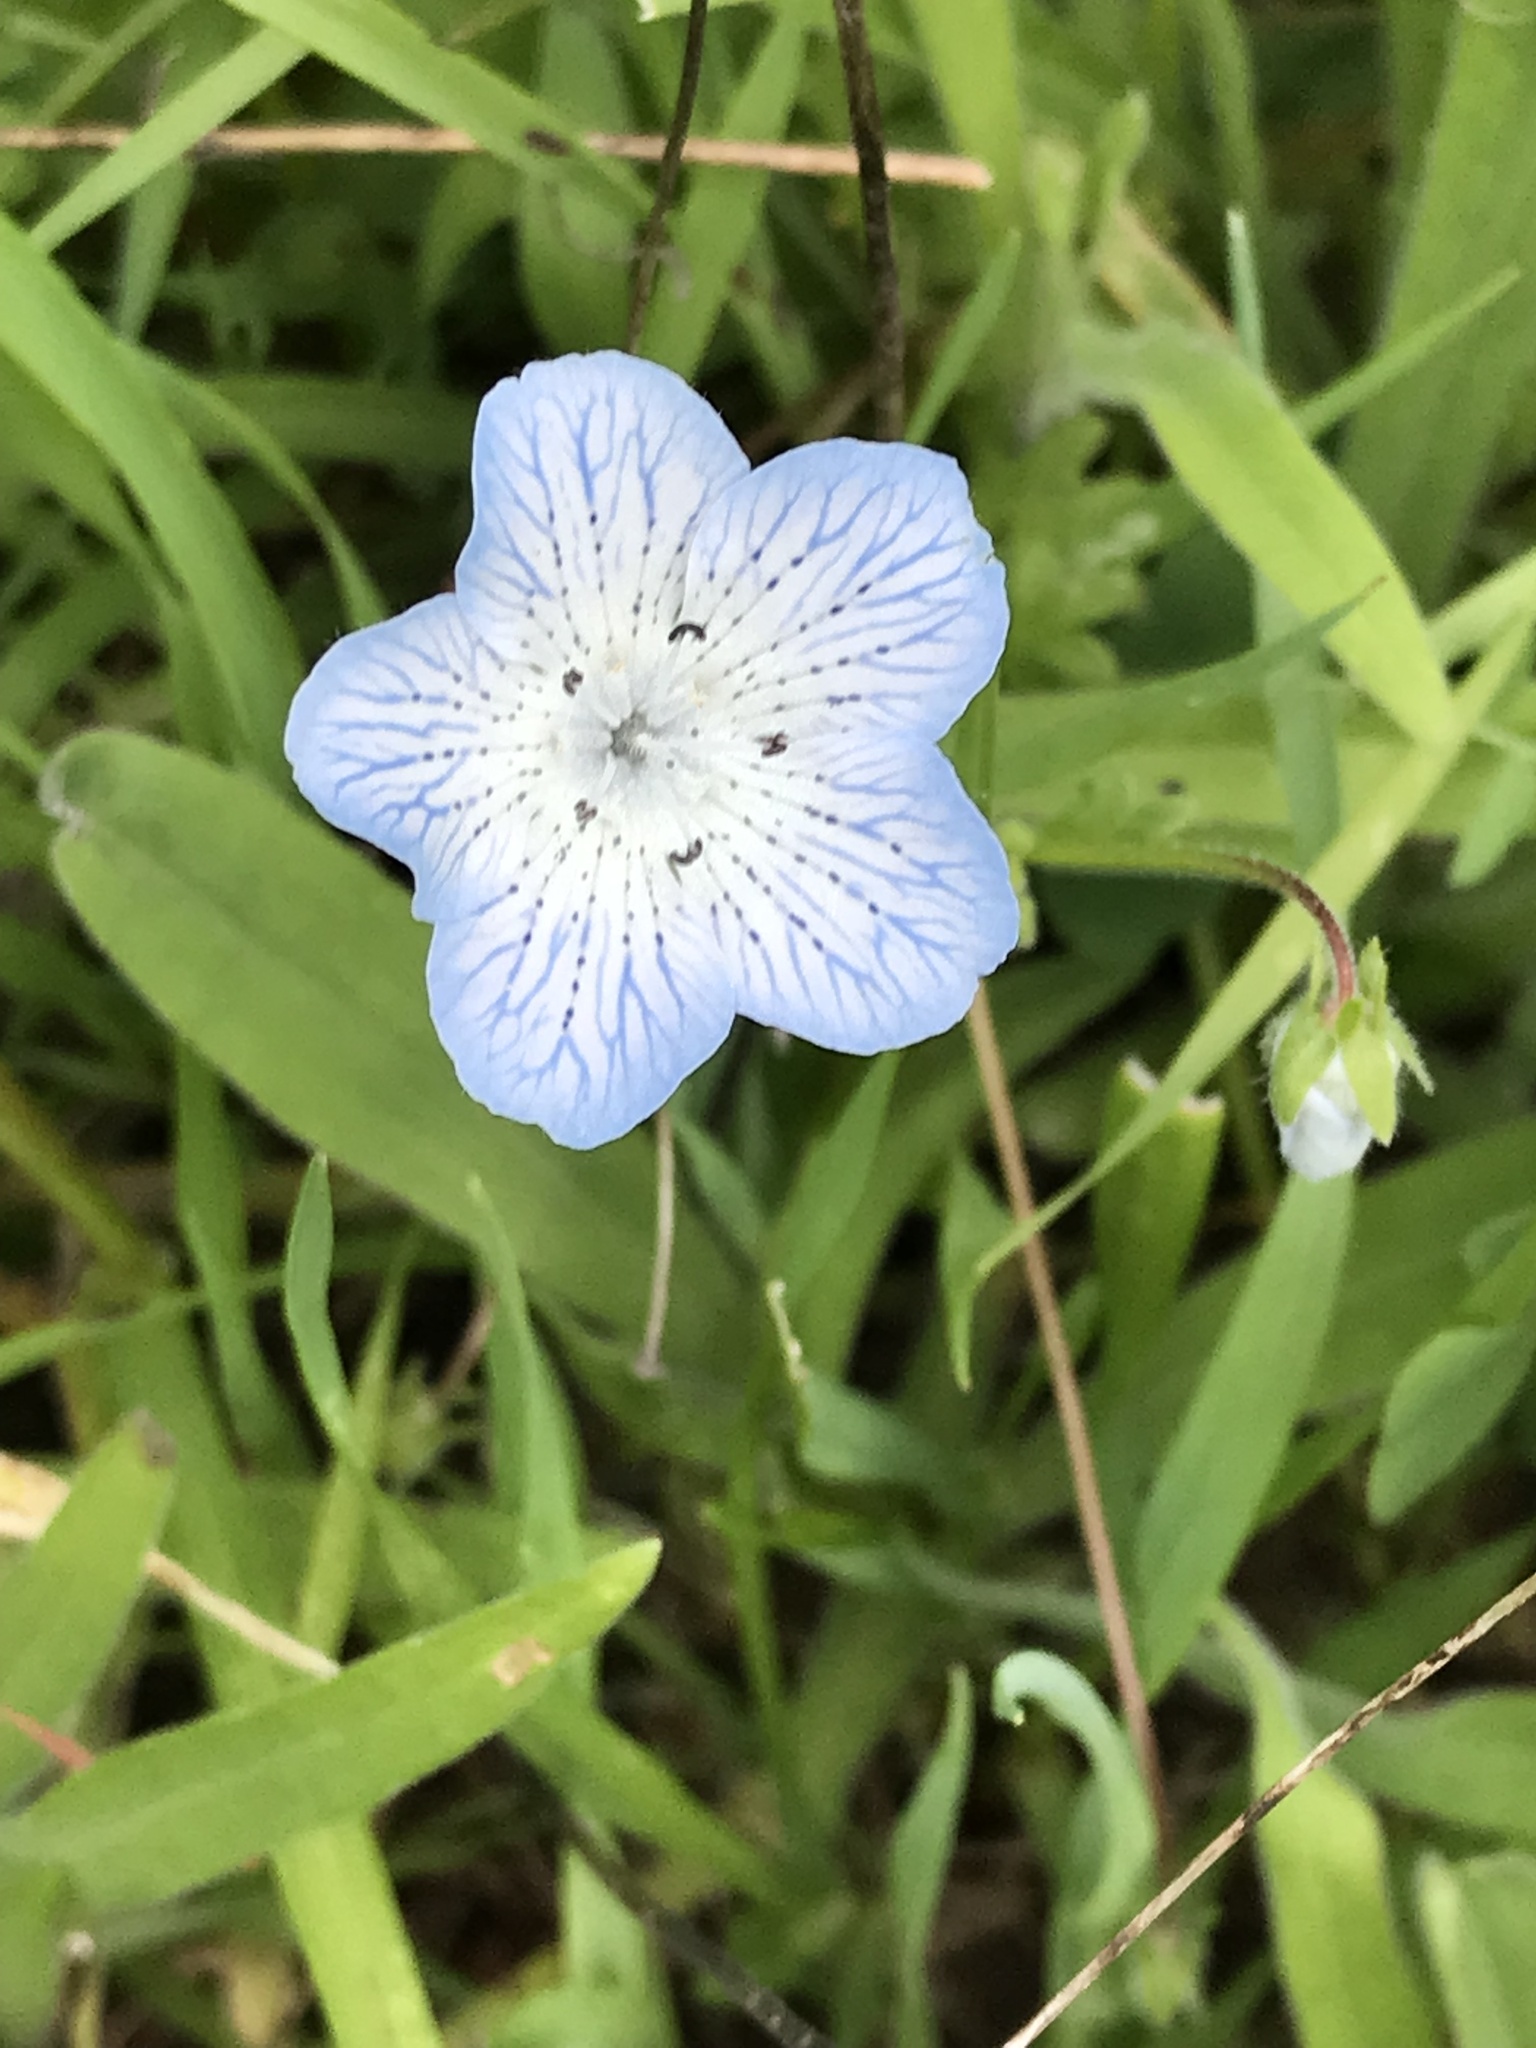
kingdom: Plantae
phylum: Tracheophyta
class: Magnoliopsida
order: Boraginales
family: Hydrophyllaceae
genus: Nemophila
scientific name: Nemophila menziesii
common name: Baby's-blue-eyes
